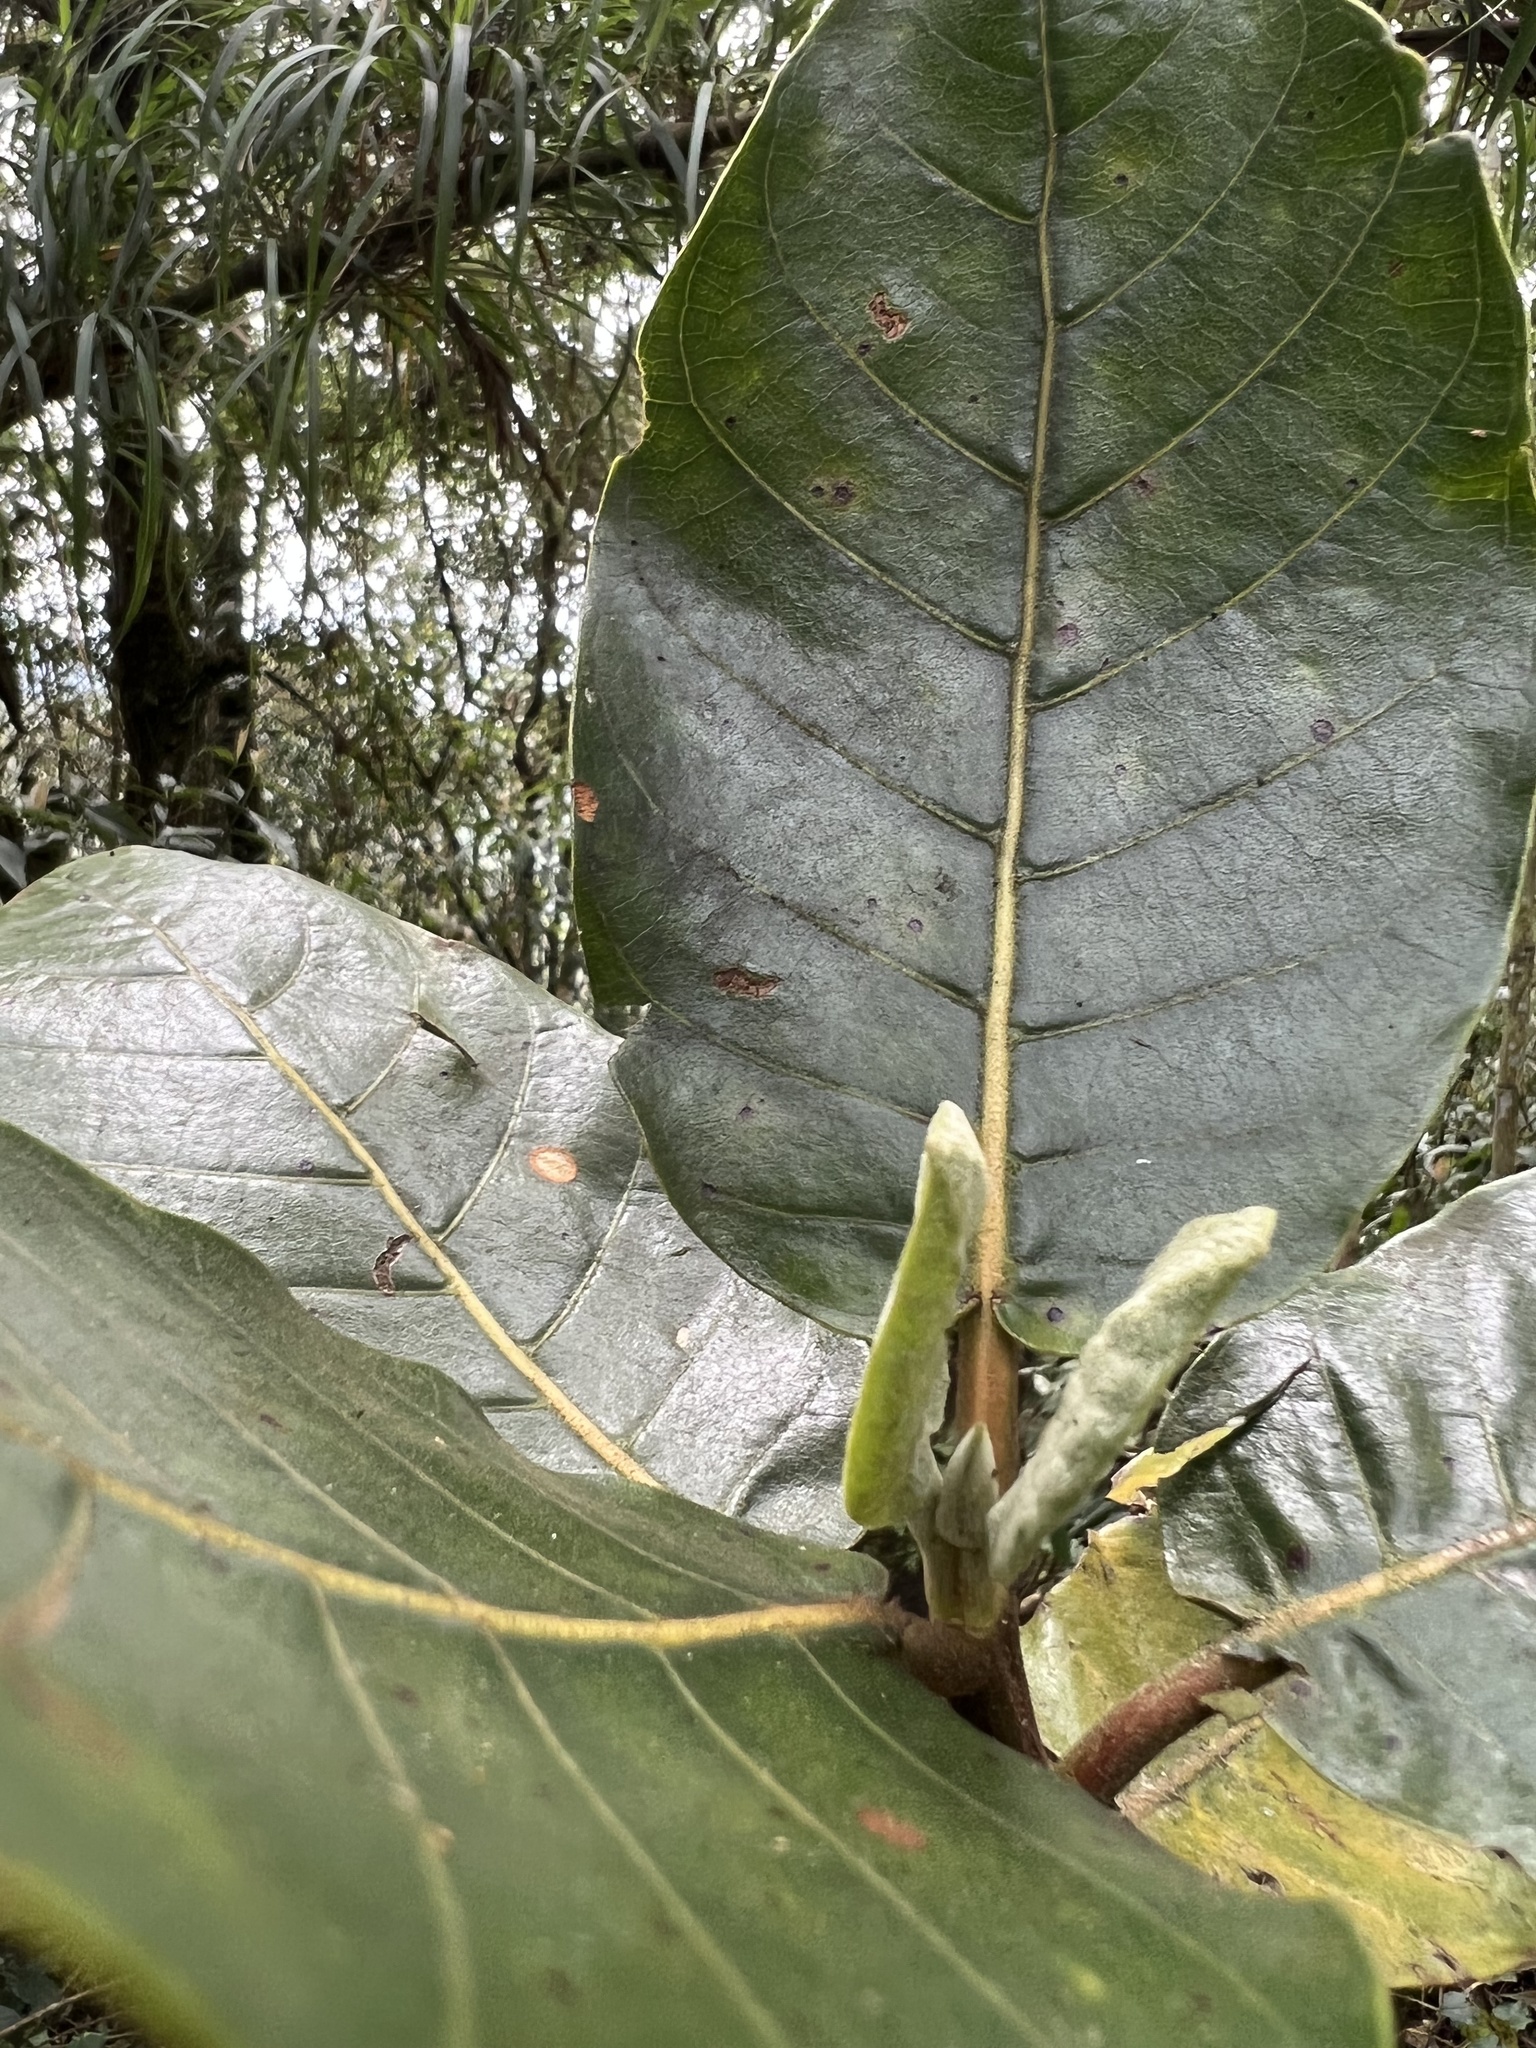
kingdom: Plantae
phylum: Tracheophyta
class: Magnoliopsida
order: Gentianales
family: Rubiaceae
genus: Ladenbergia
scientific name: Ladenbergia macrocarpa
